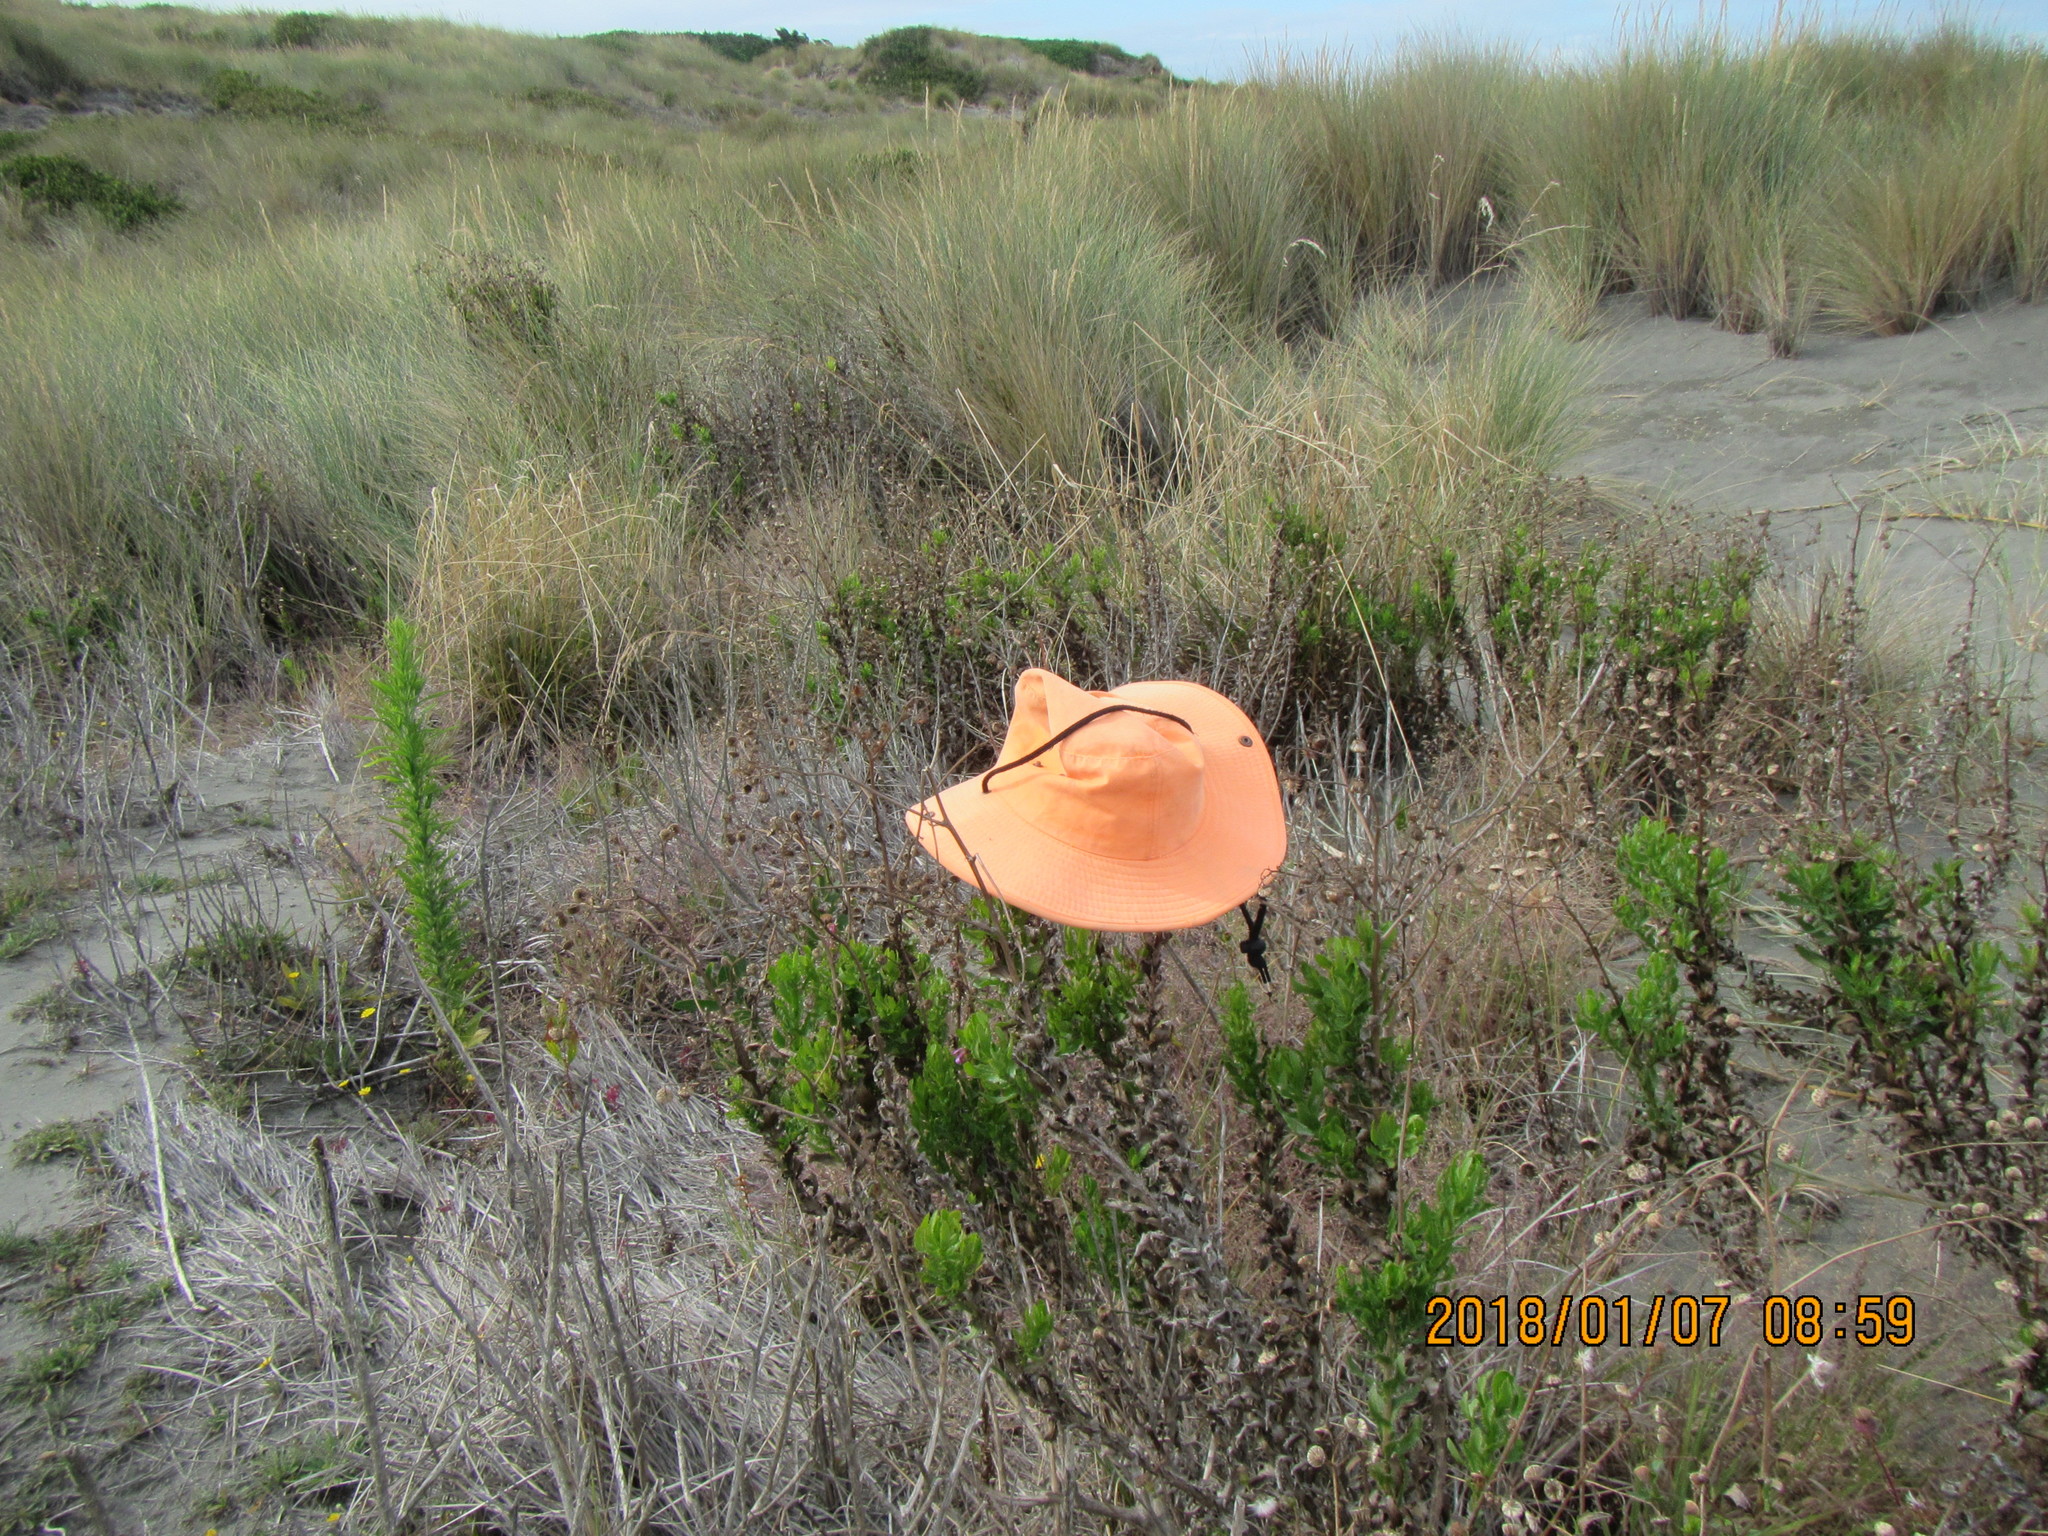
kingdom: Plantae
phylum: Tracheophyta
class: Magnoliopsida
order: Asterales
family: Asteraceae
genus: Senecio
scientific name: Senecio glastifolius
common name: Woad-leaved ragwort
